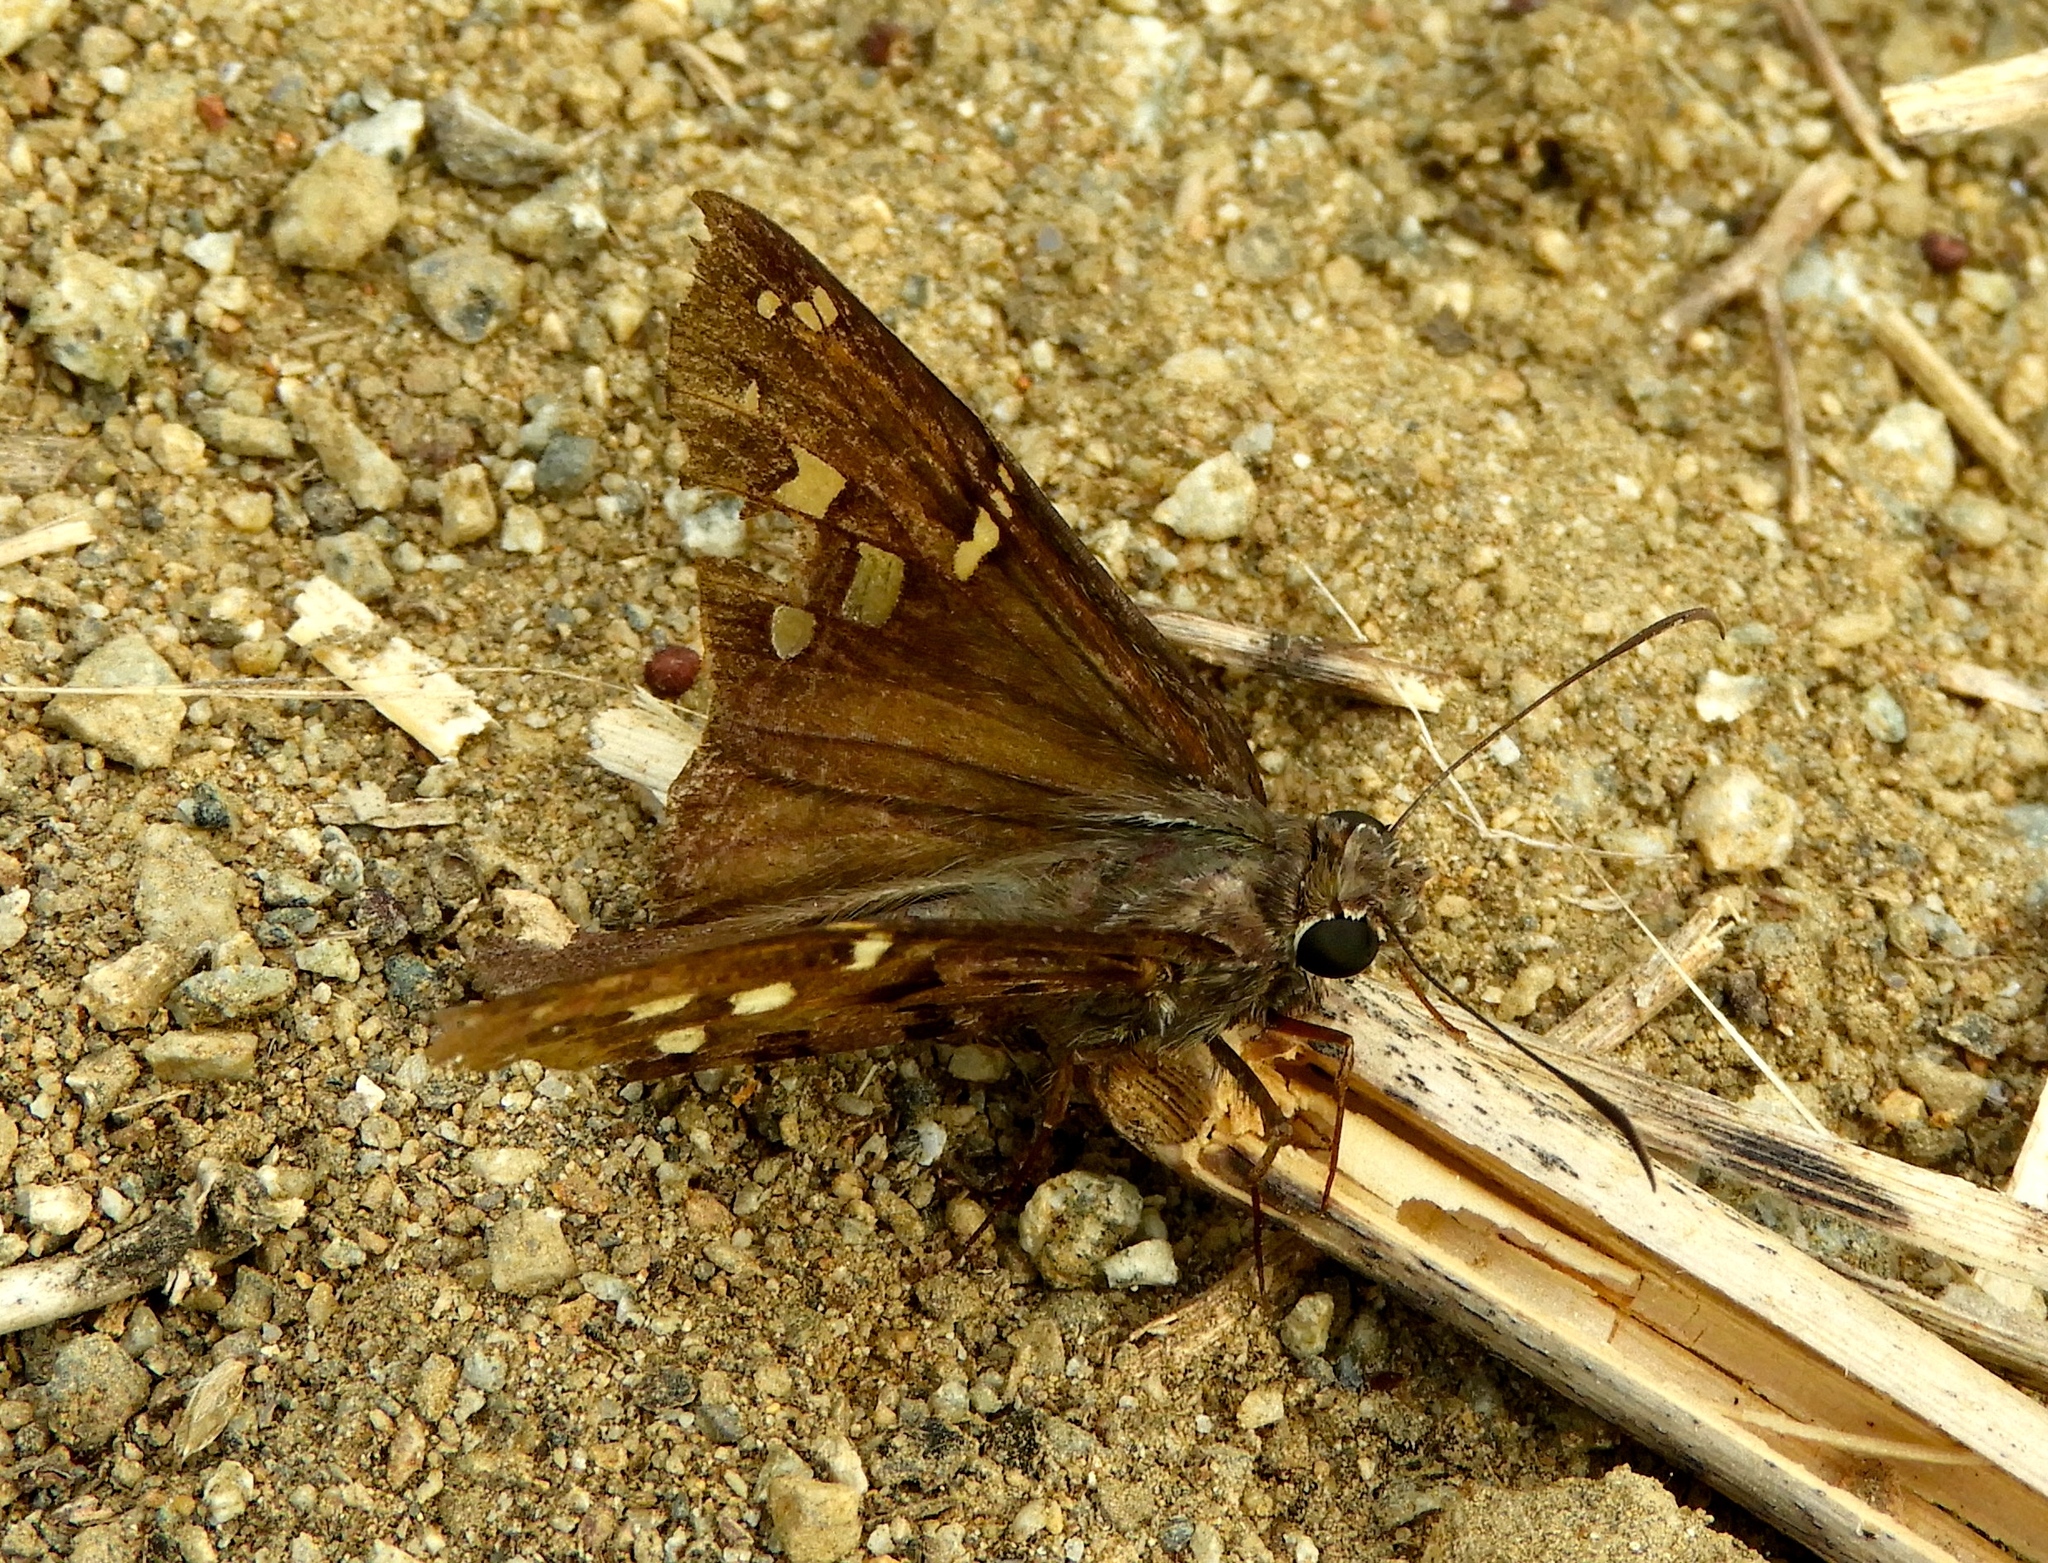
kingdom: Animalia
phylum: Arthropoda
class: Insecta
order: Lepidoptera
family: Hesperiidae
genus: Urbanus
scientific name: Urbanus proteus
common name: Long-tailed skipper
